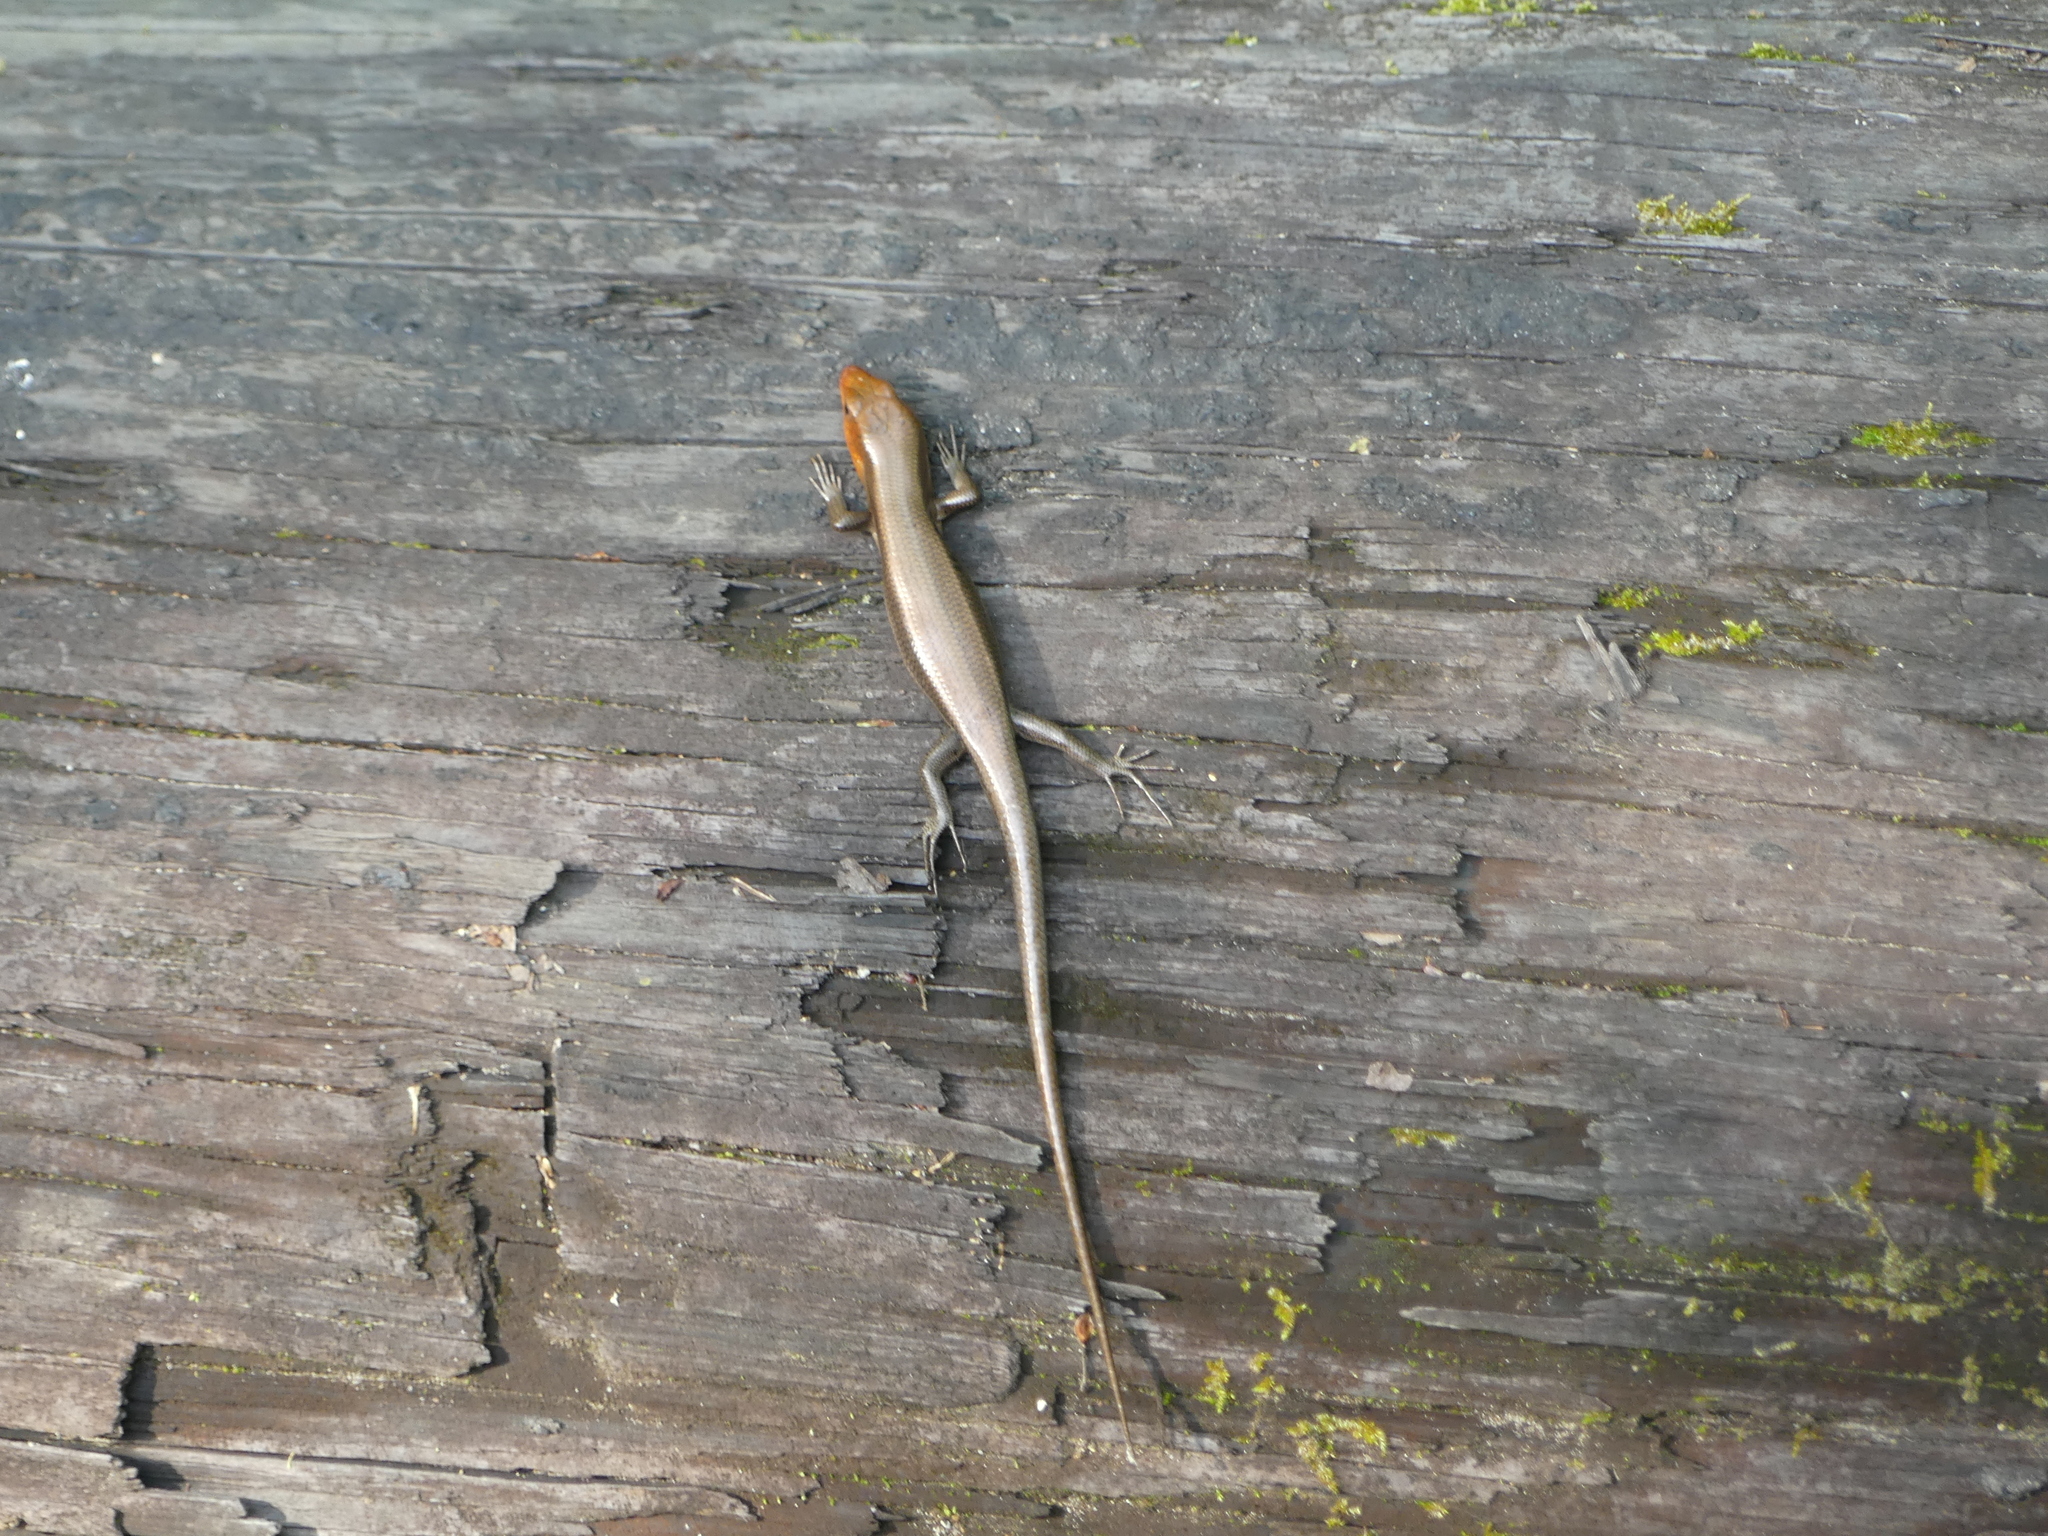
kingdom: Animalia
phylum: Chordata
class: Squamata
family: Scincidae
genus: Plestiodon
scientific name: Plestiodon laticeps
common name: Broadhead skink
